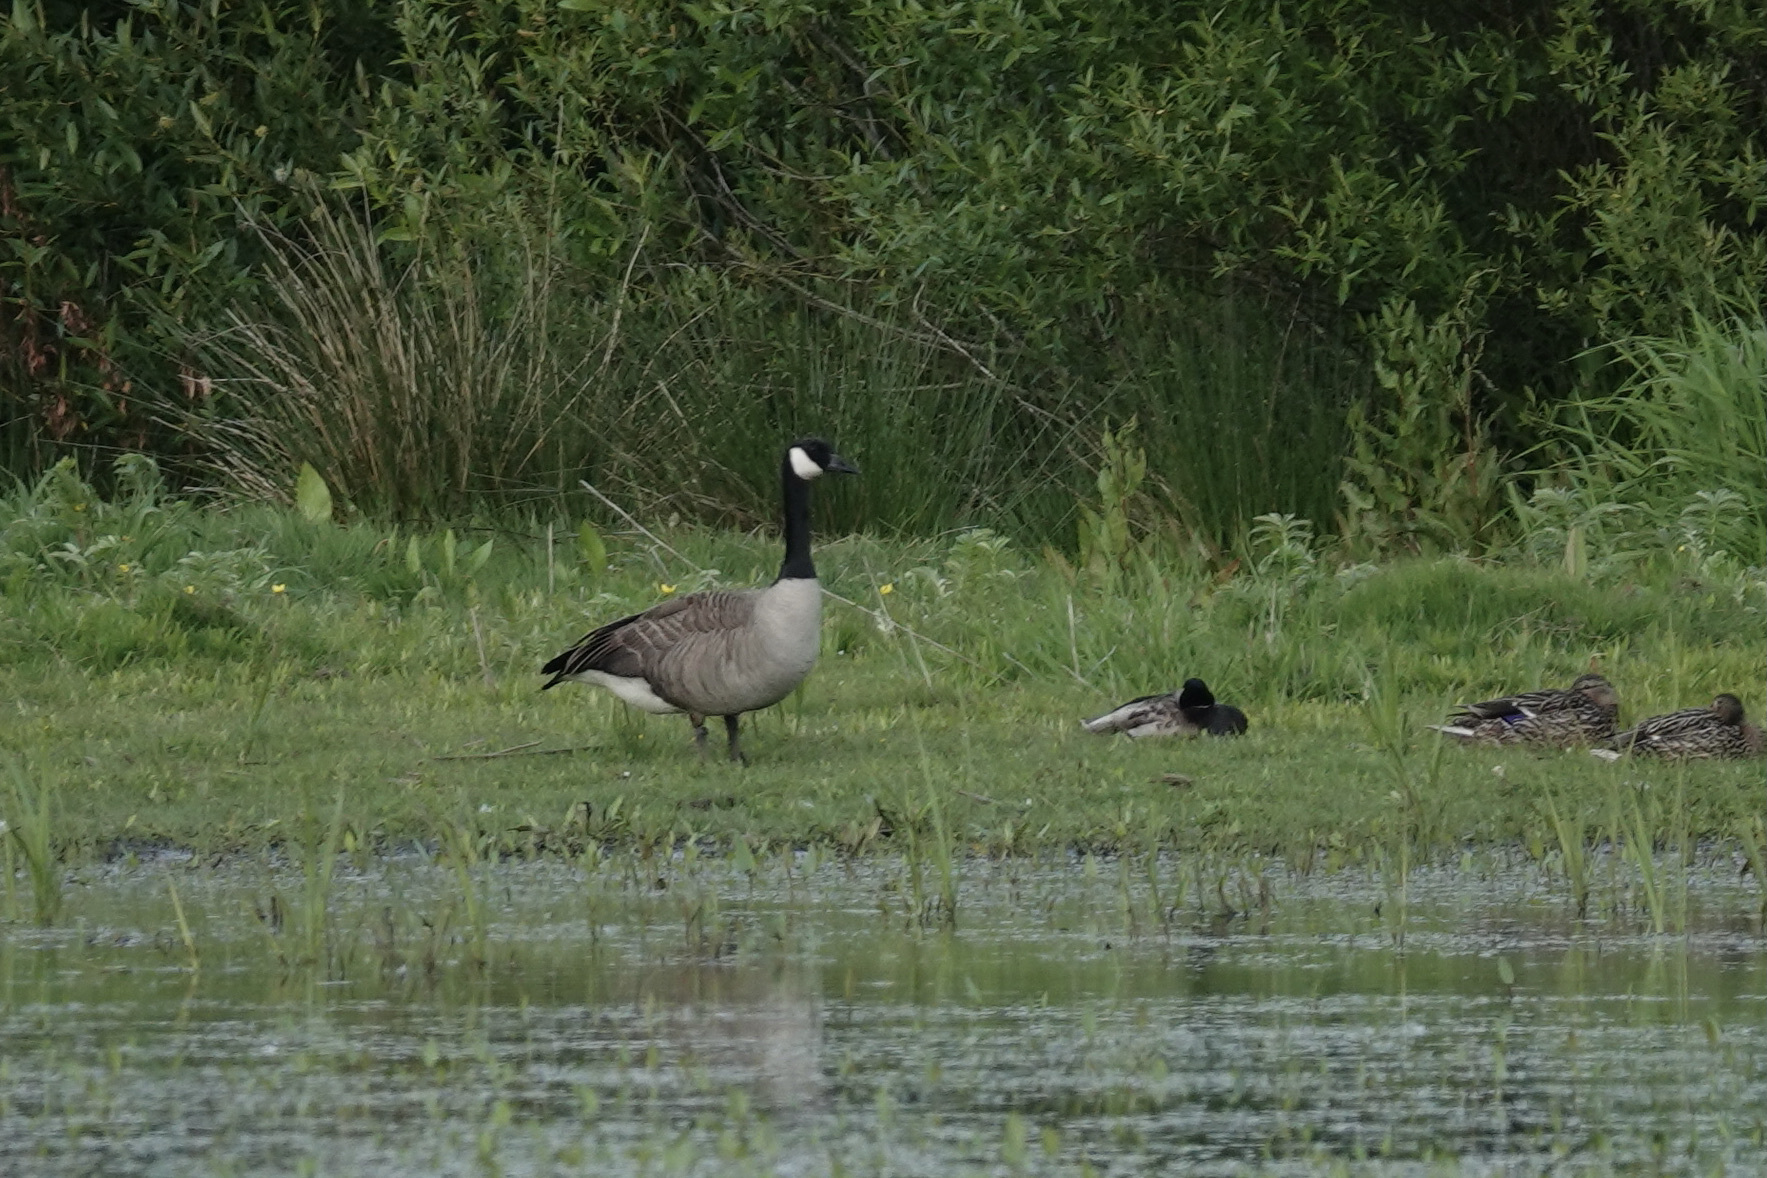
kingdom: Animalia
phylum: Chordata
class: Aves
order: Anseriformes
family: Anatidae
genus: Branta
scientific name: Branta canadensis
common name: Canada goose
